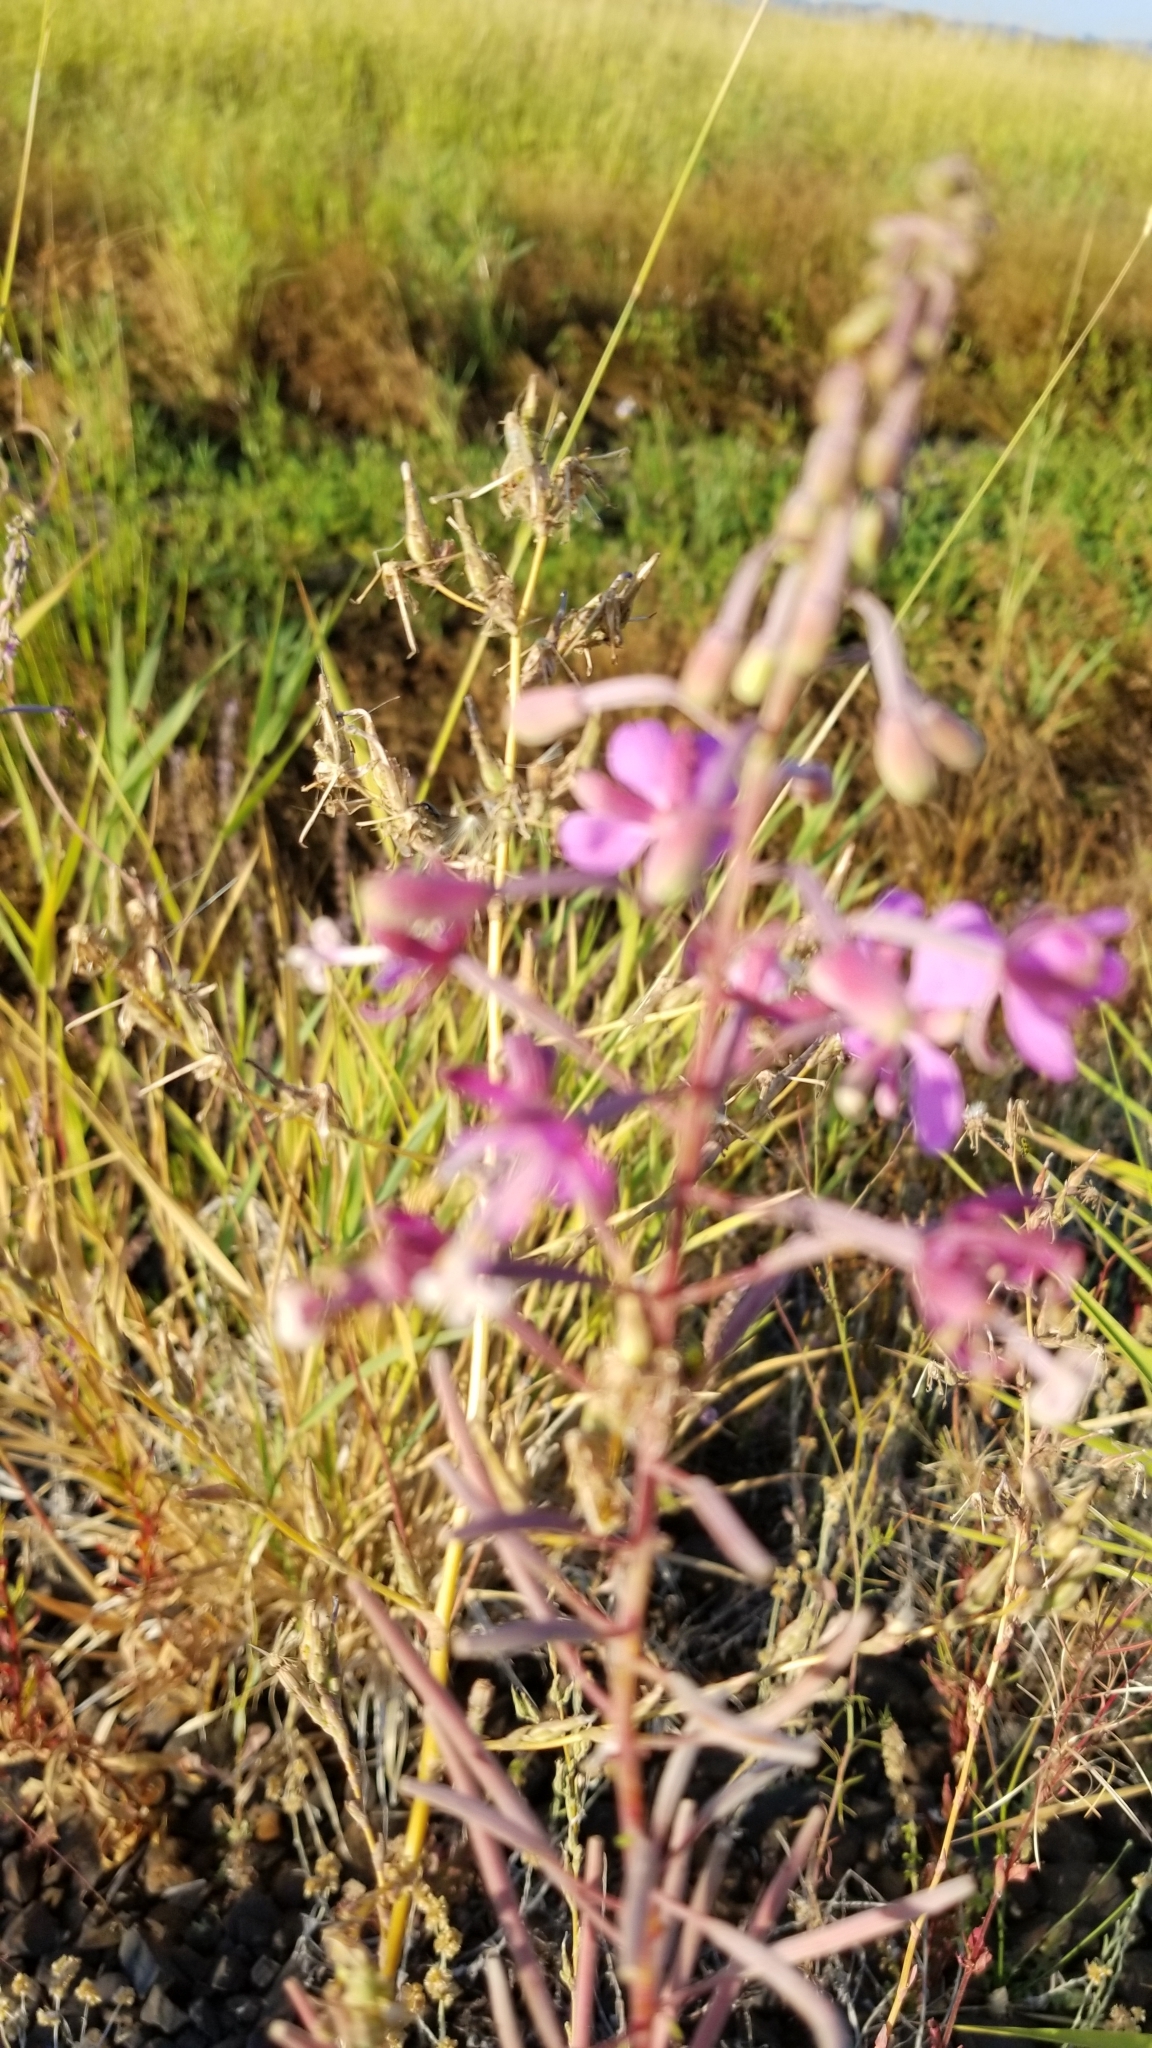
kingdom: Plantae
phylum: Tracheophyta
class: Magnoliopsida
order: Myrtales
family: Onagraceae
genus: Chamaenerion
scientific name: Chamaenerion angustifolium
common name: Fireweed
